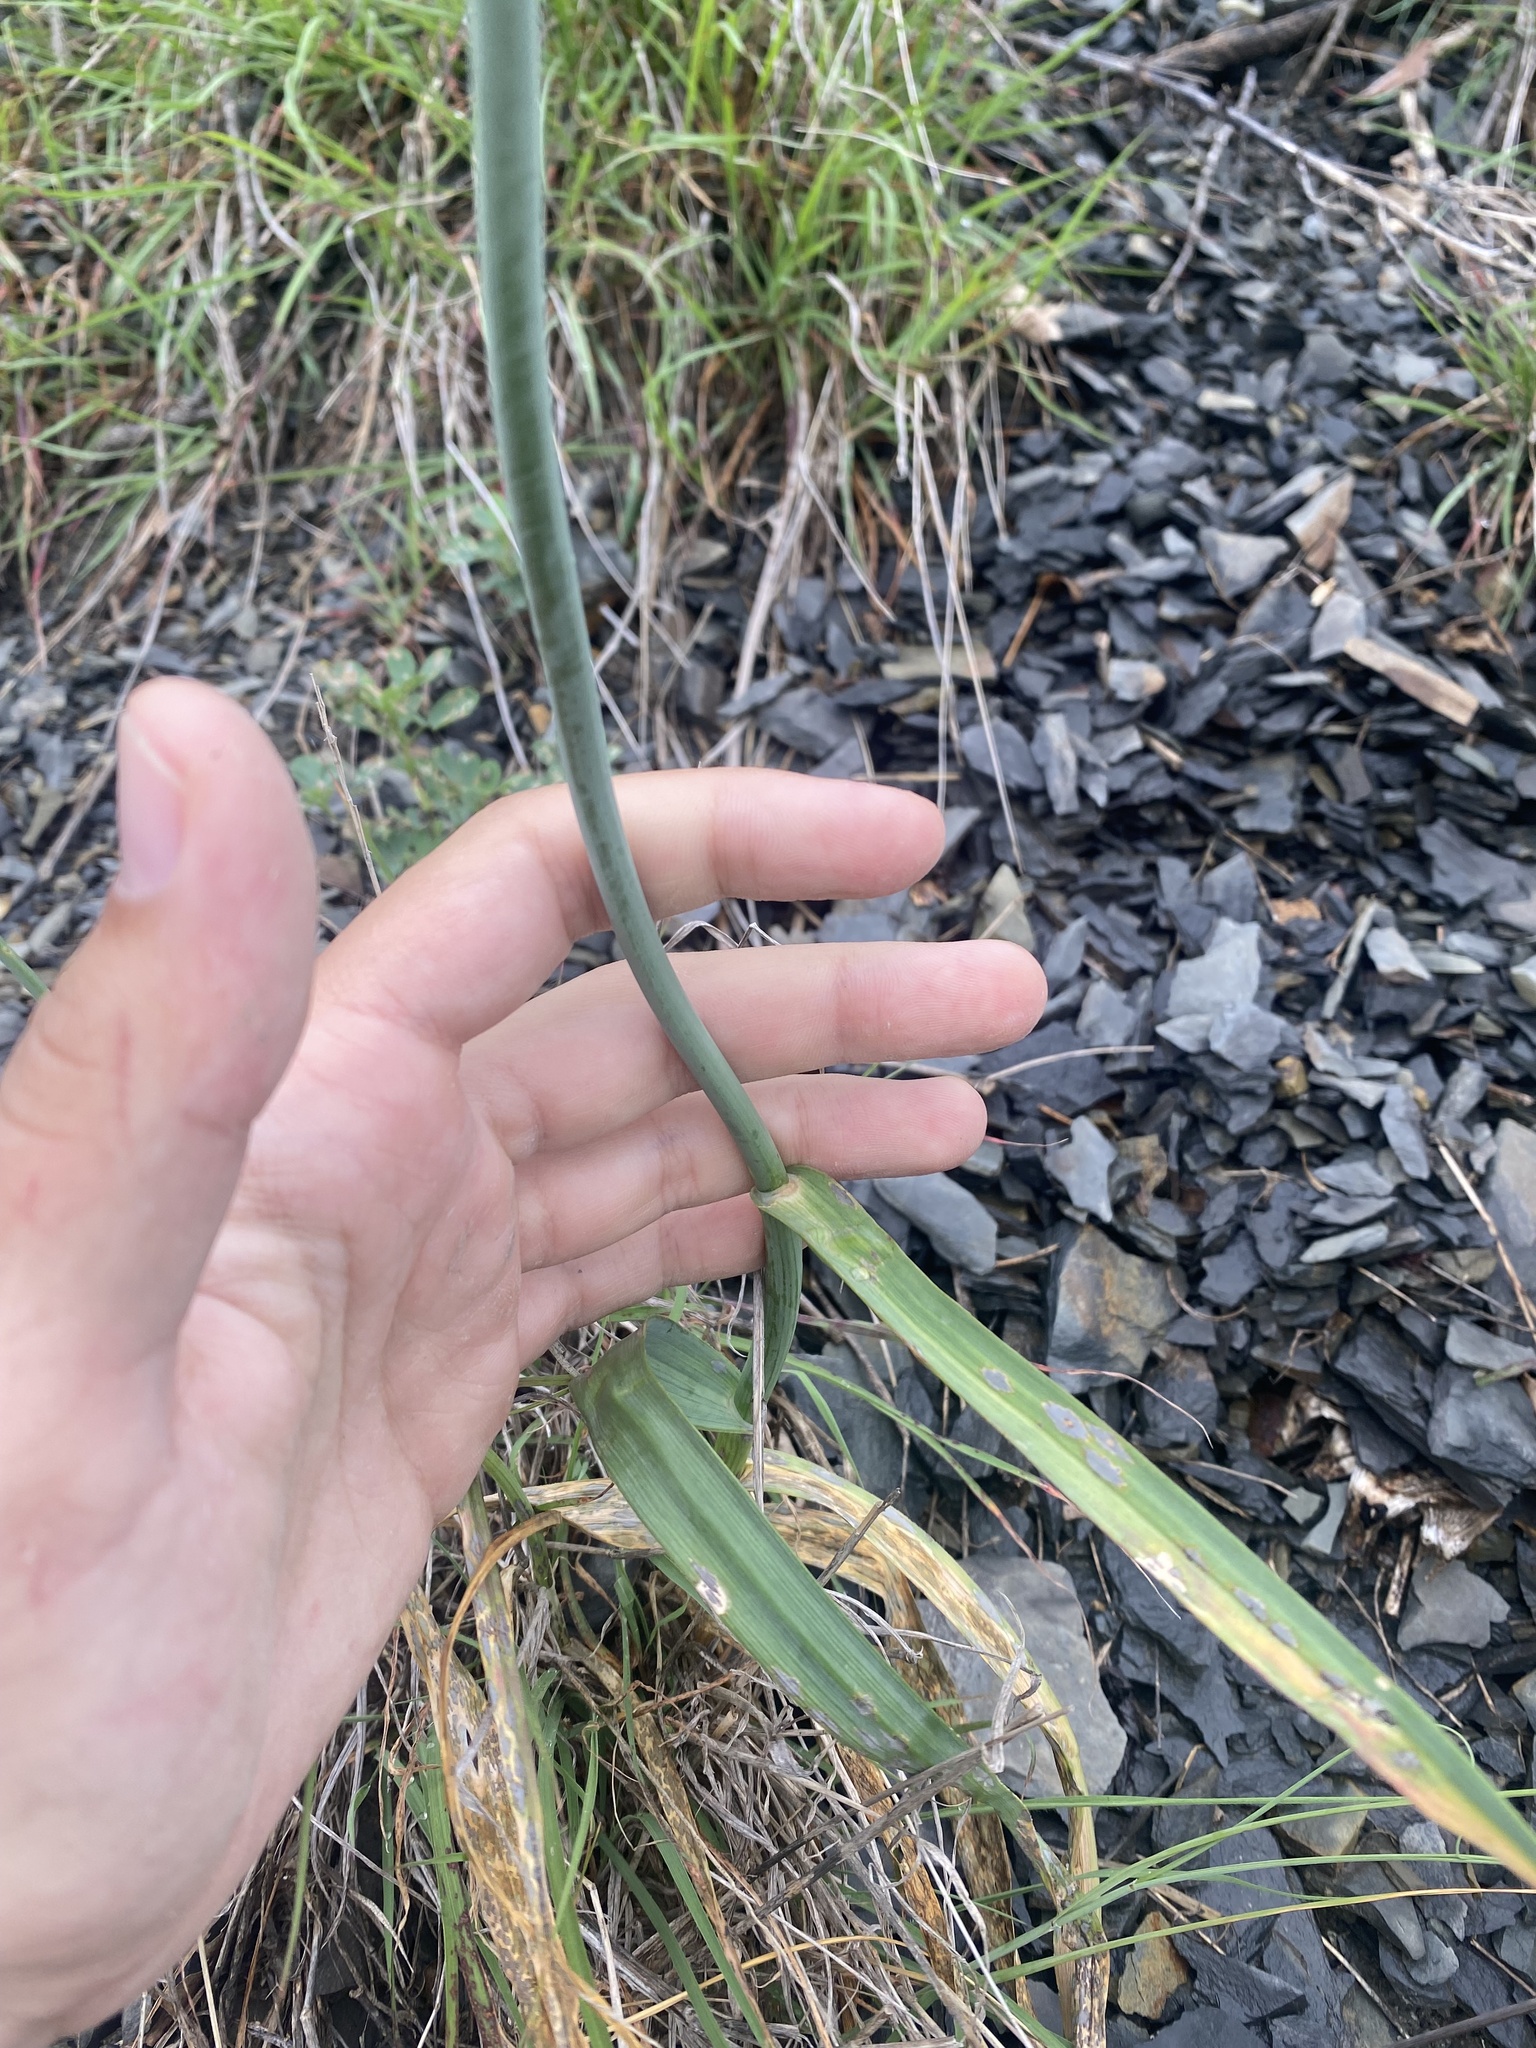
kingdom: Plantae
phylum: Tracheophyta
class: Liliopsida
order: Asparagales
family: Amaryllidaceae
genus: Allium
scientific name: Allium rotundum
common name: Sand leek
